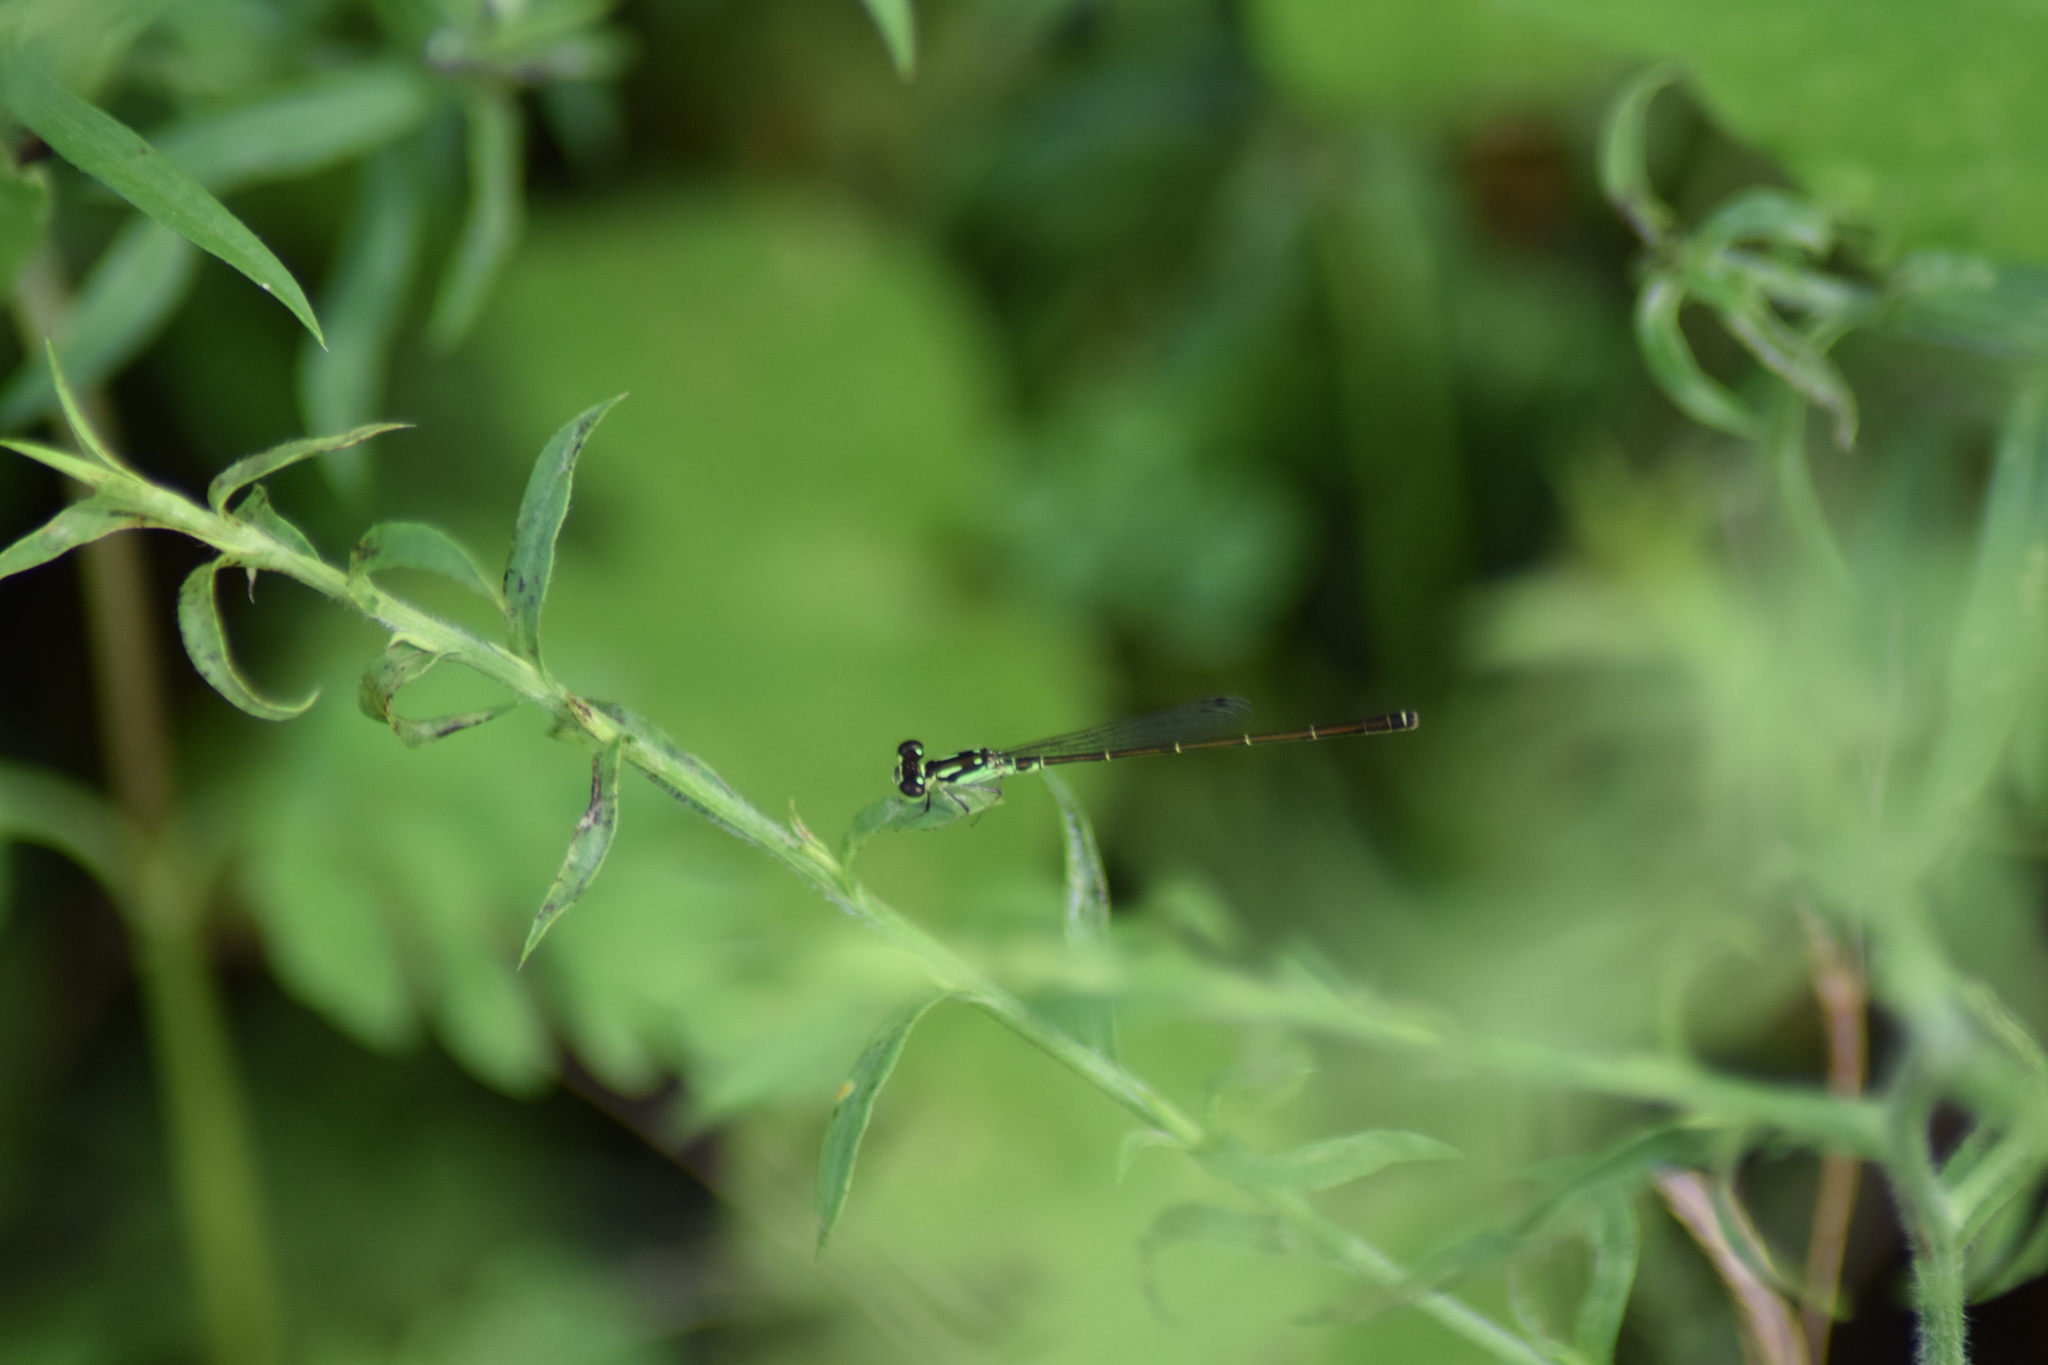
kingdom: Animalia
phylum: Arthropoda
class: Insecta
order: Odonata
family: Coenagrionidae
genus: Ischnura
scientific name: Ischnura posita
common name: Fragile forktail
